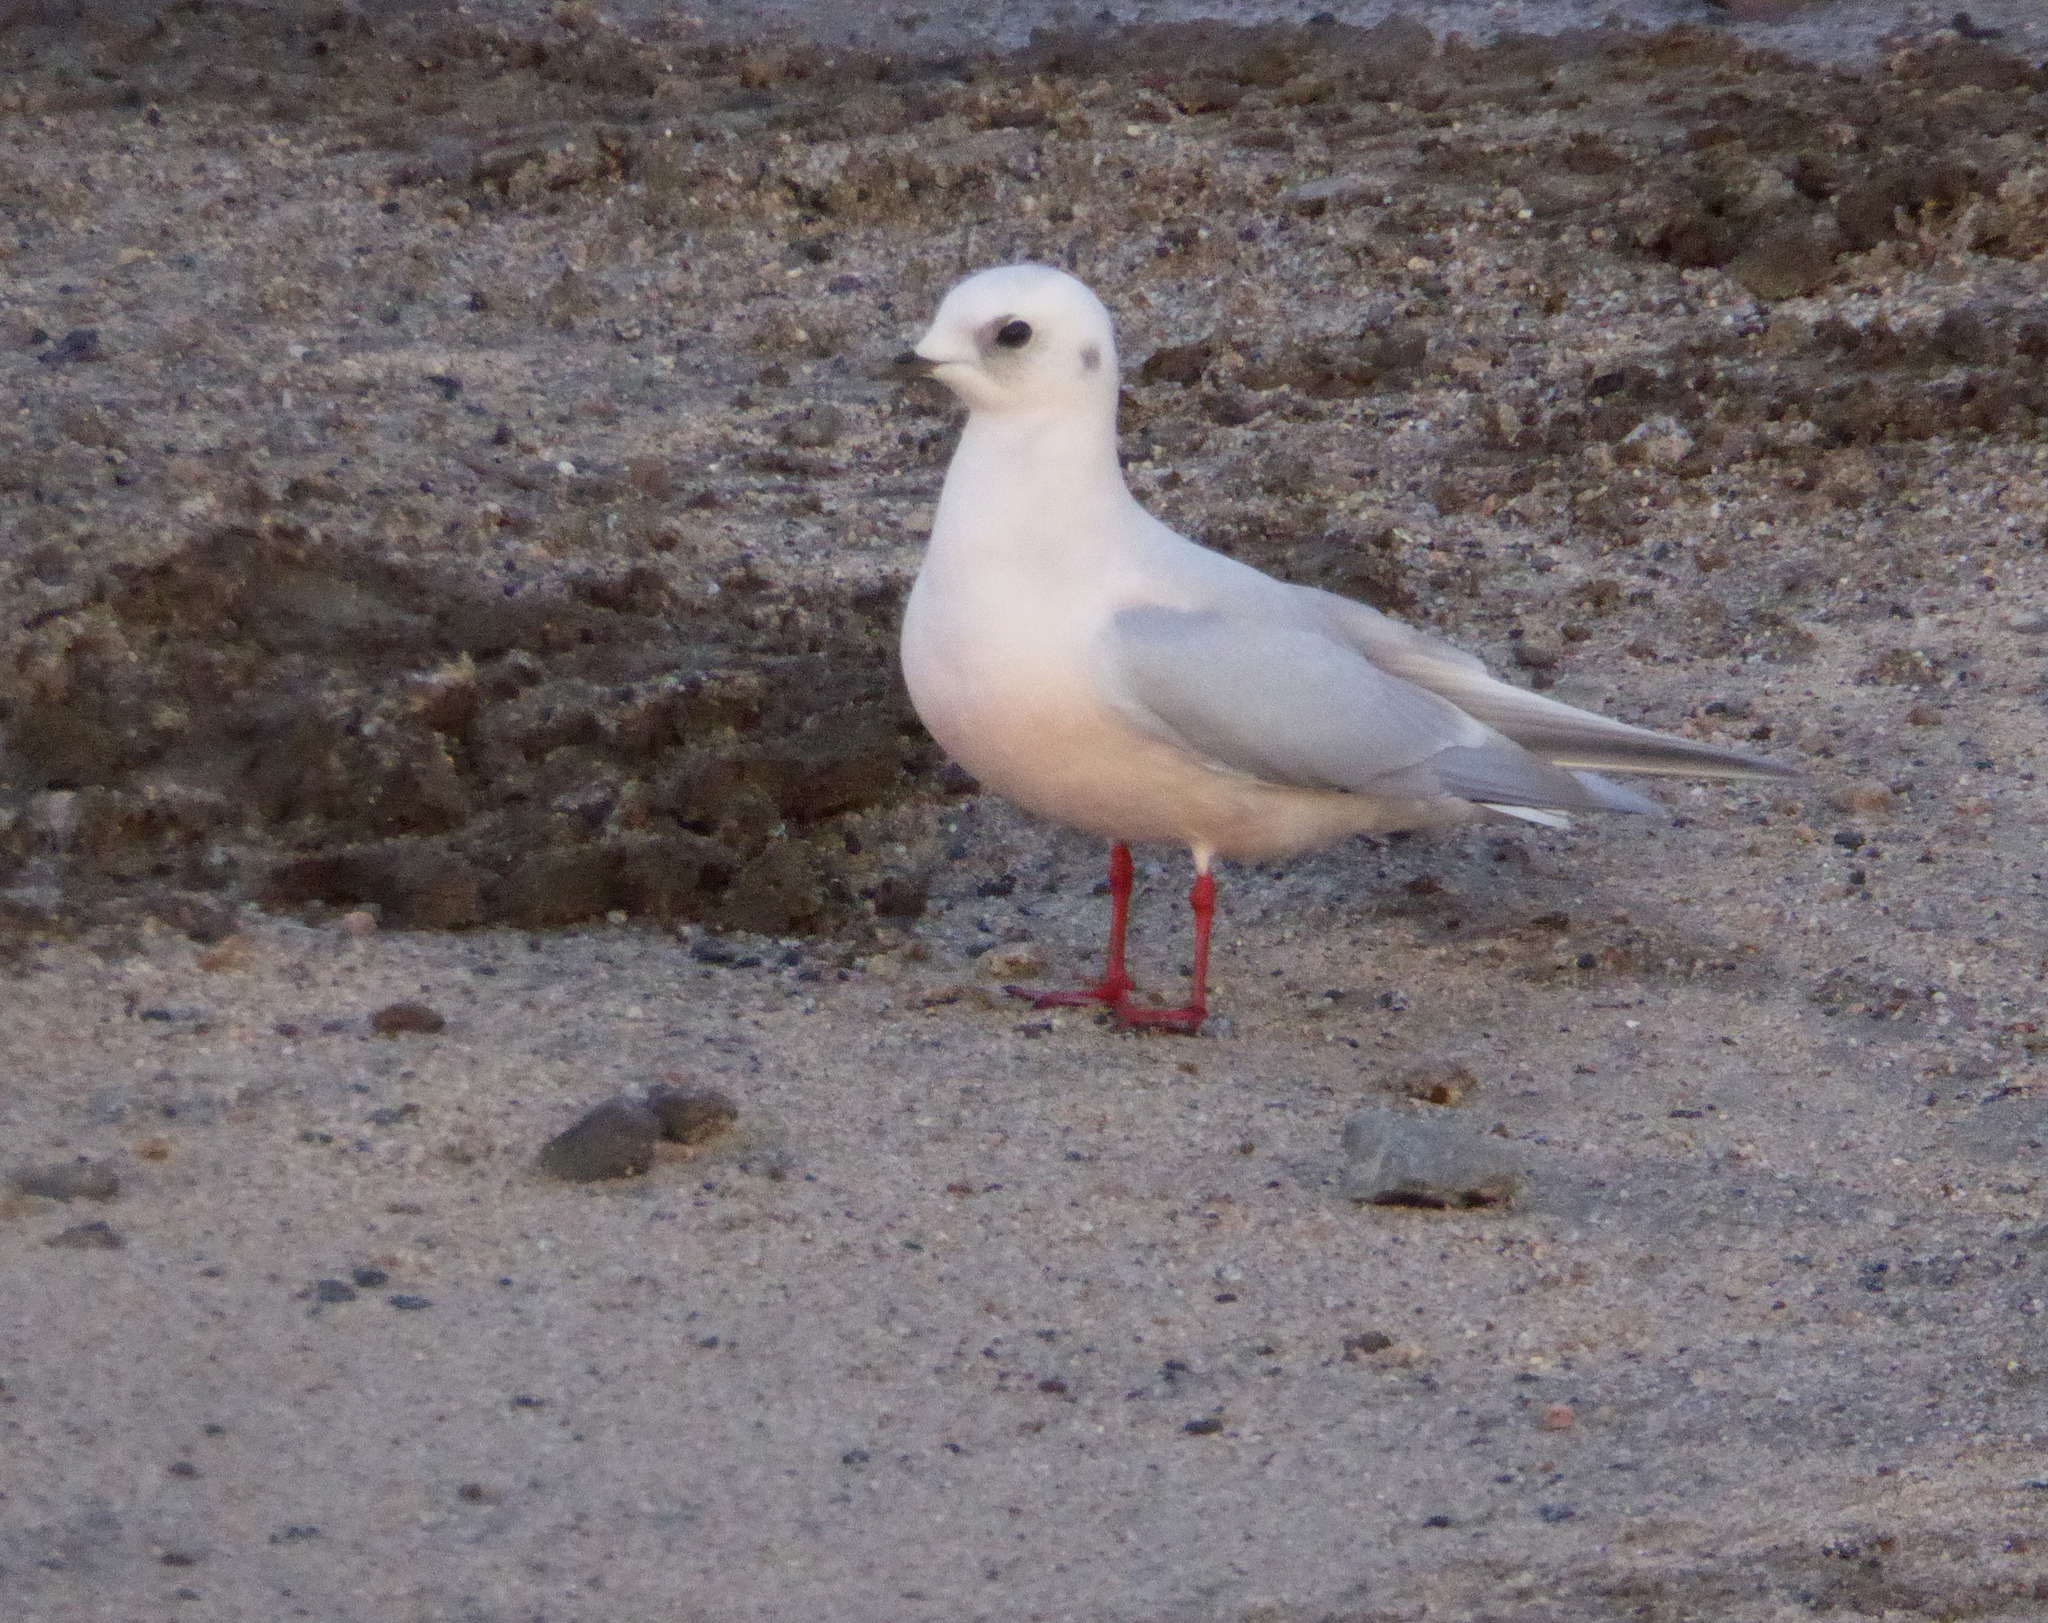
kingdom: Animalia
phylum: Chordata
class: Aves
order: Charadriiformes
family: Laridae
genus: Rhodostethia
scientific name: Rhodostethia rosea
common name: Ross's gull
